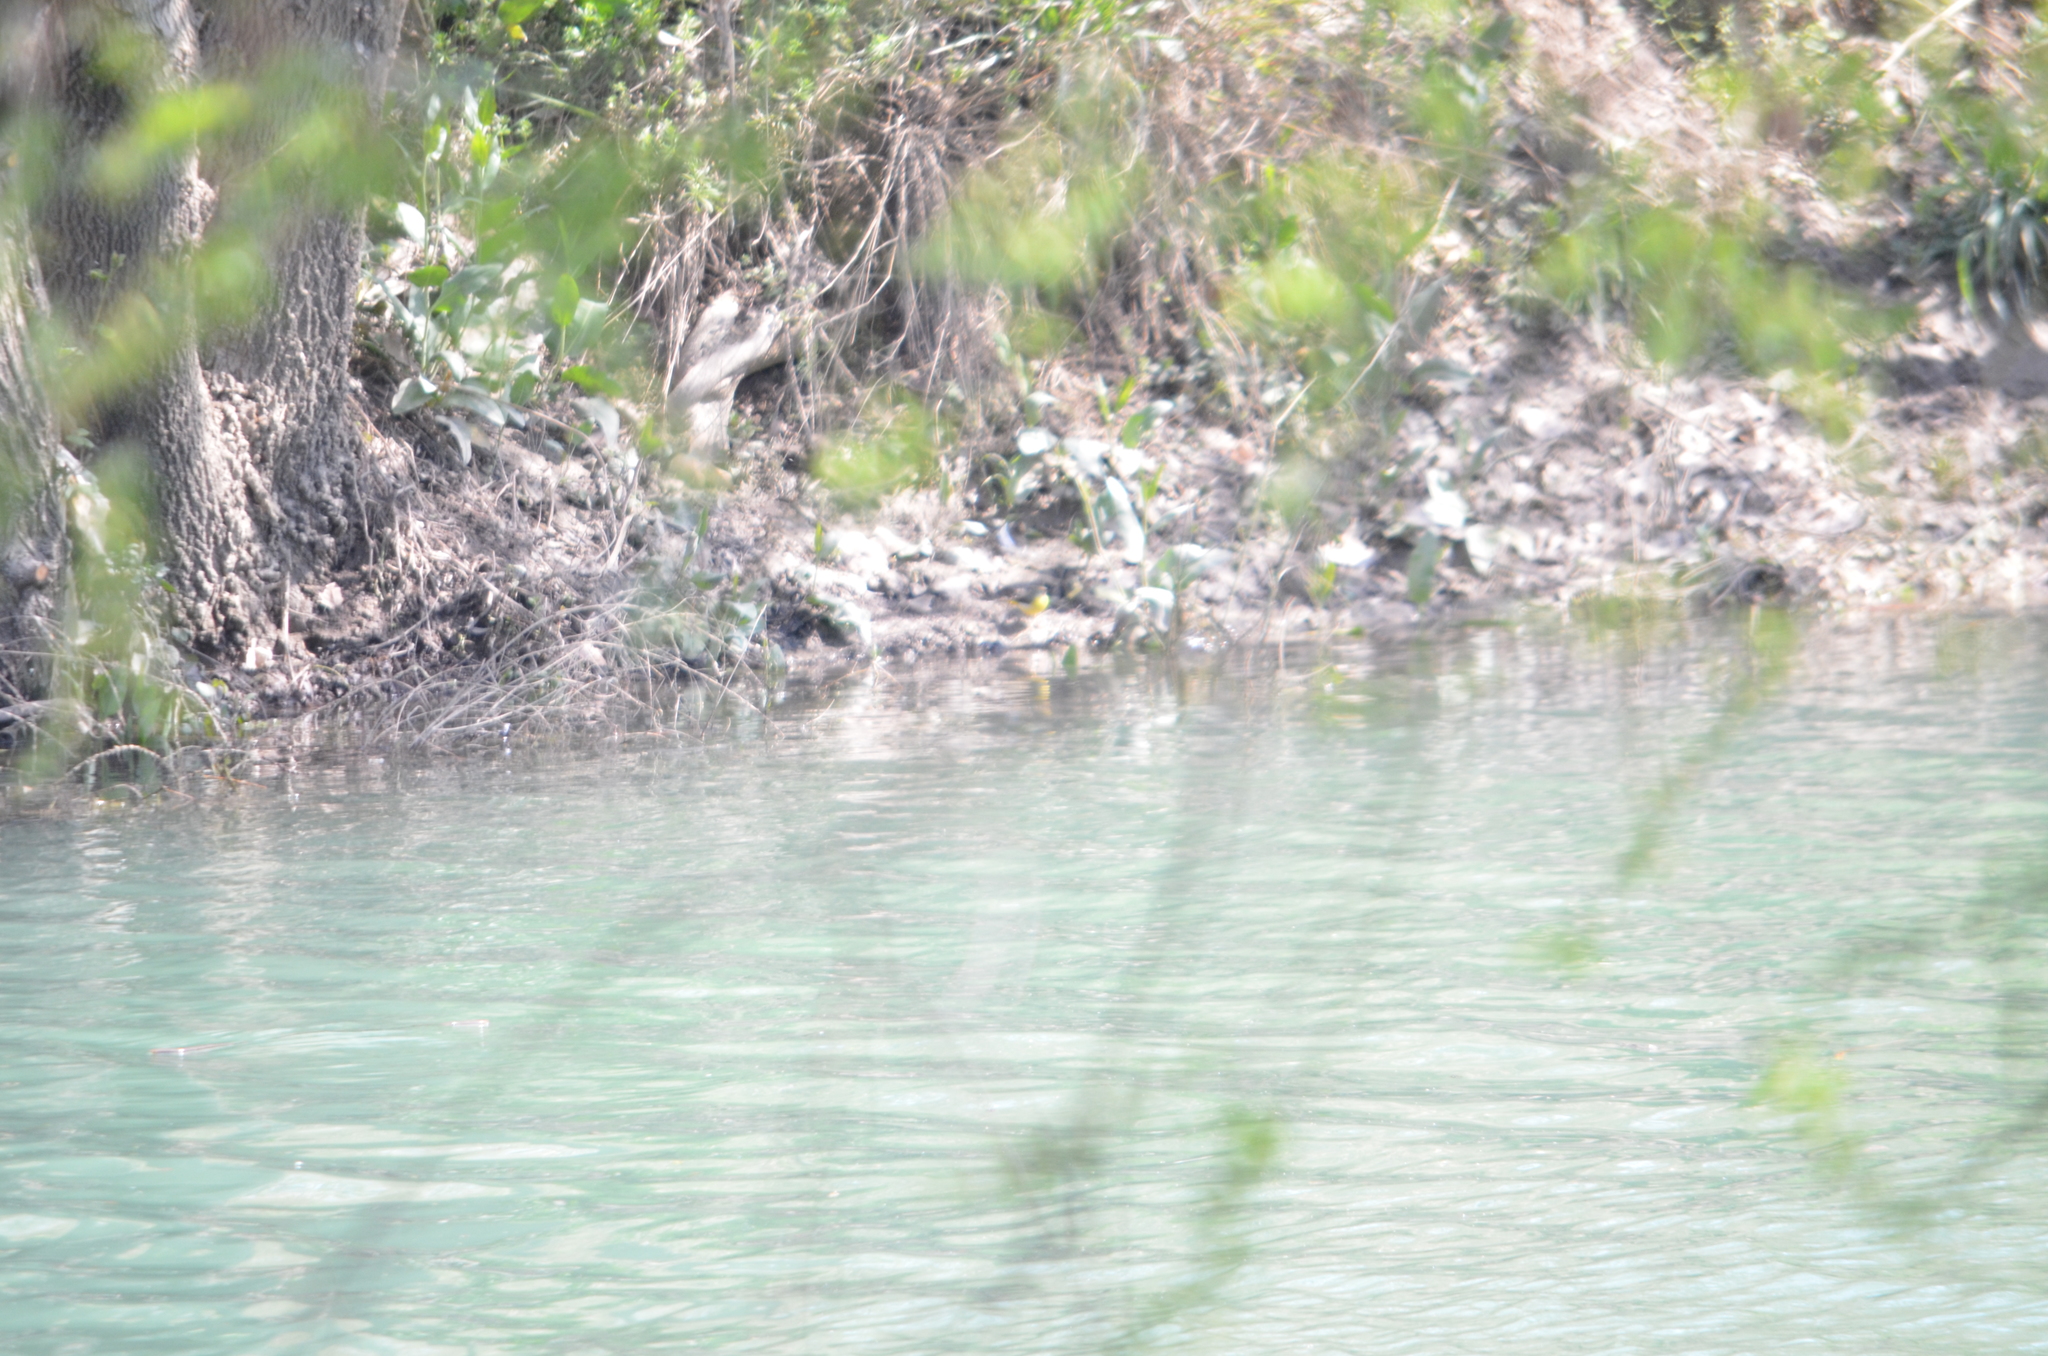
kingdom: Animalia
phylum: Chordata
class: Aves
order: Passeriformes
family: Motacillidae
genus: Motacilla
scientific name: Motacilla cinerea
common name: Grey wagtail
